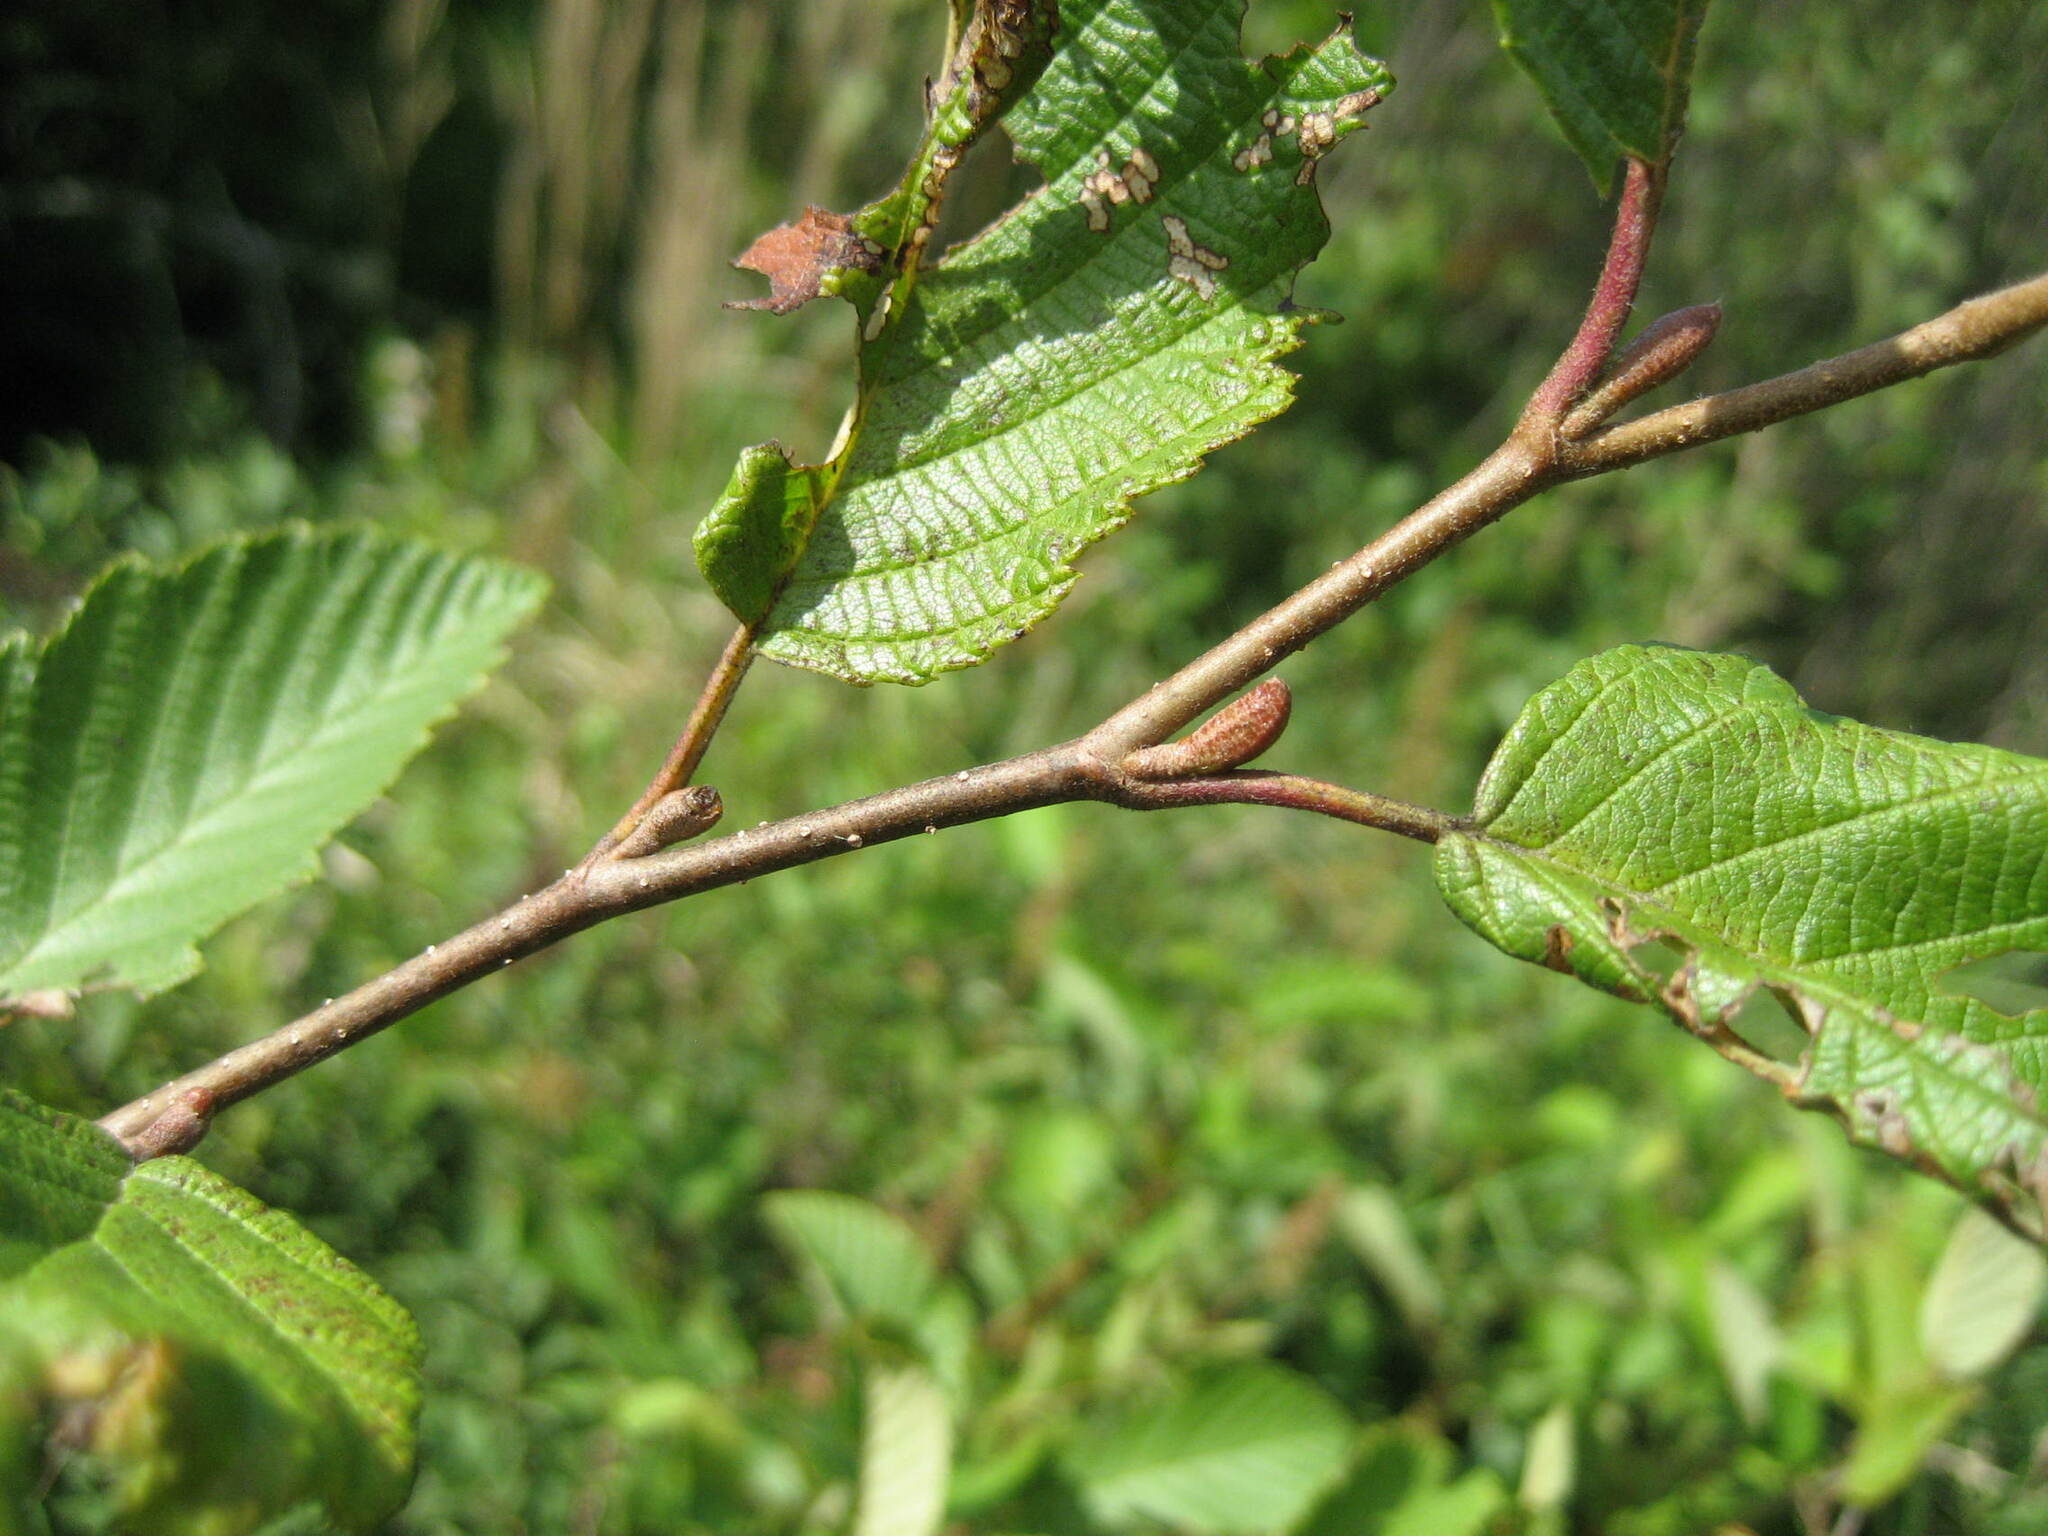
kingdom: Plantae
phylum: Tracheophyta
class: Magnoliopsida
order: Fagales
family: Betulaceae
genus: Alnus
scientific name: Alnus incana
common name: Grey alder
